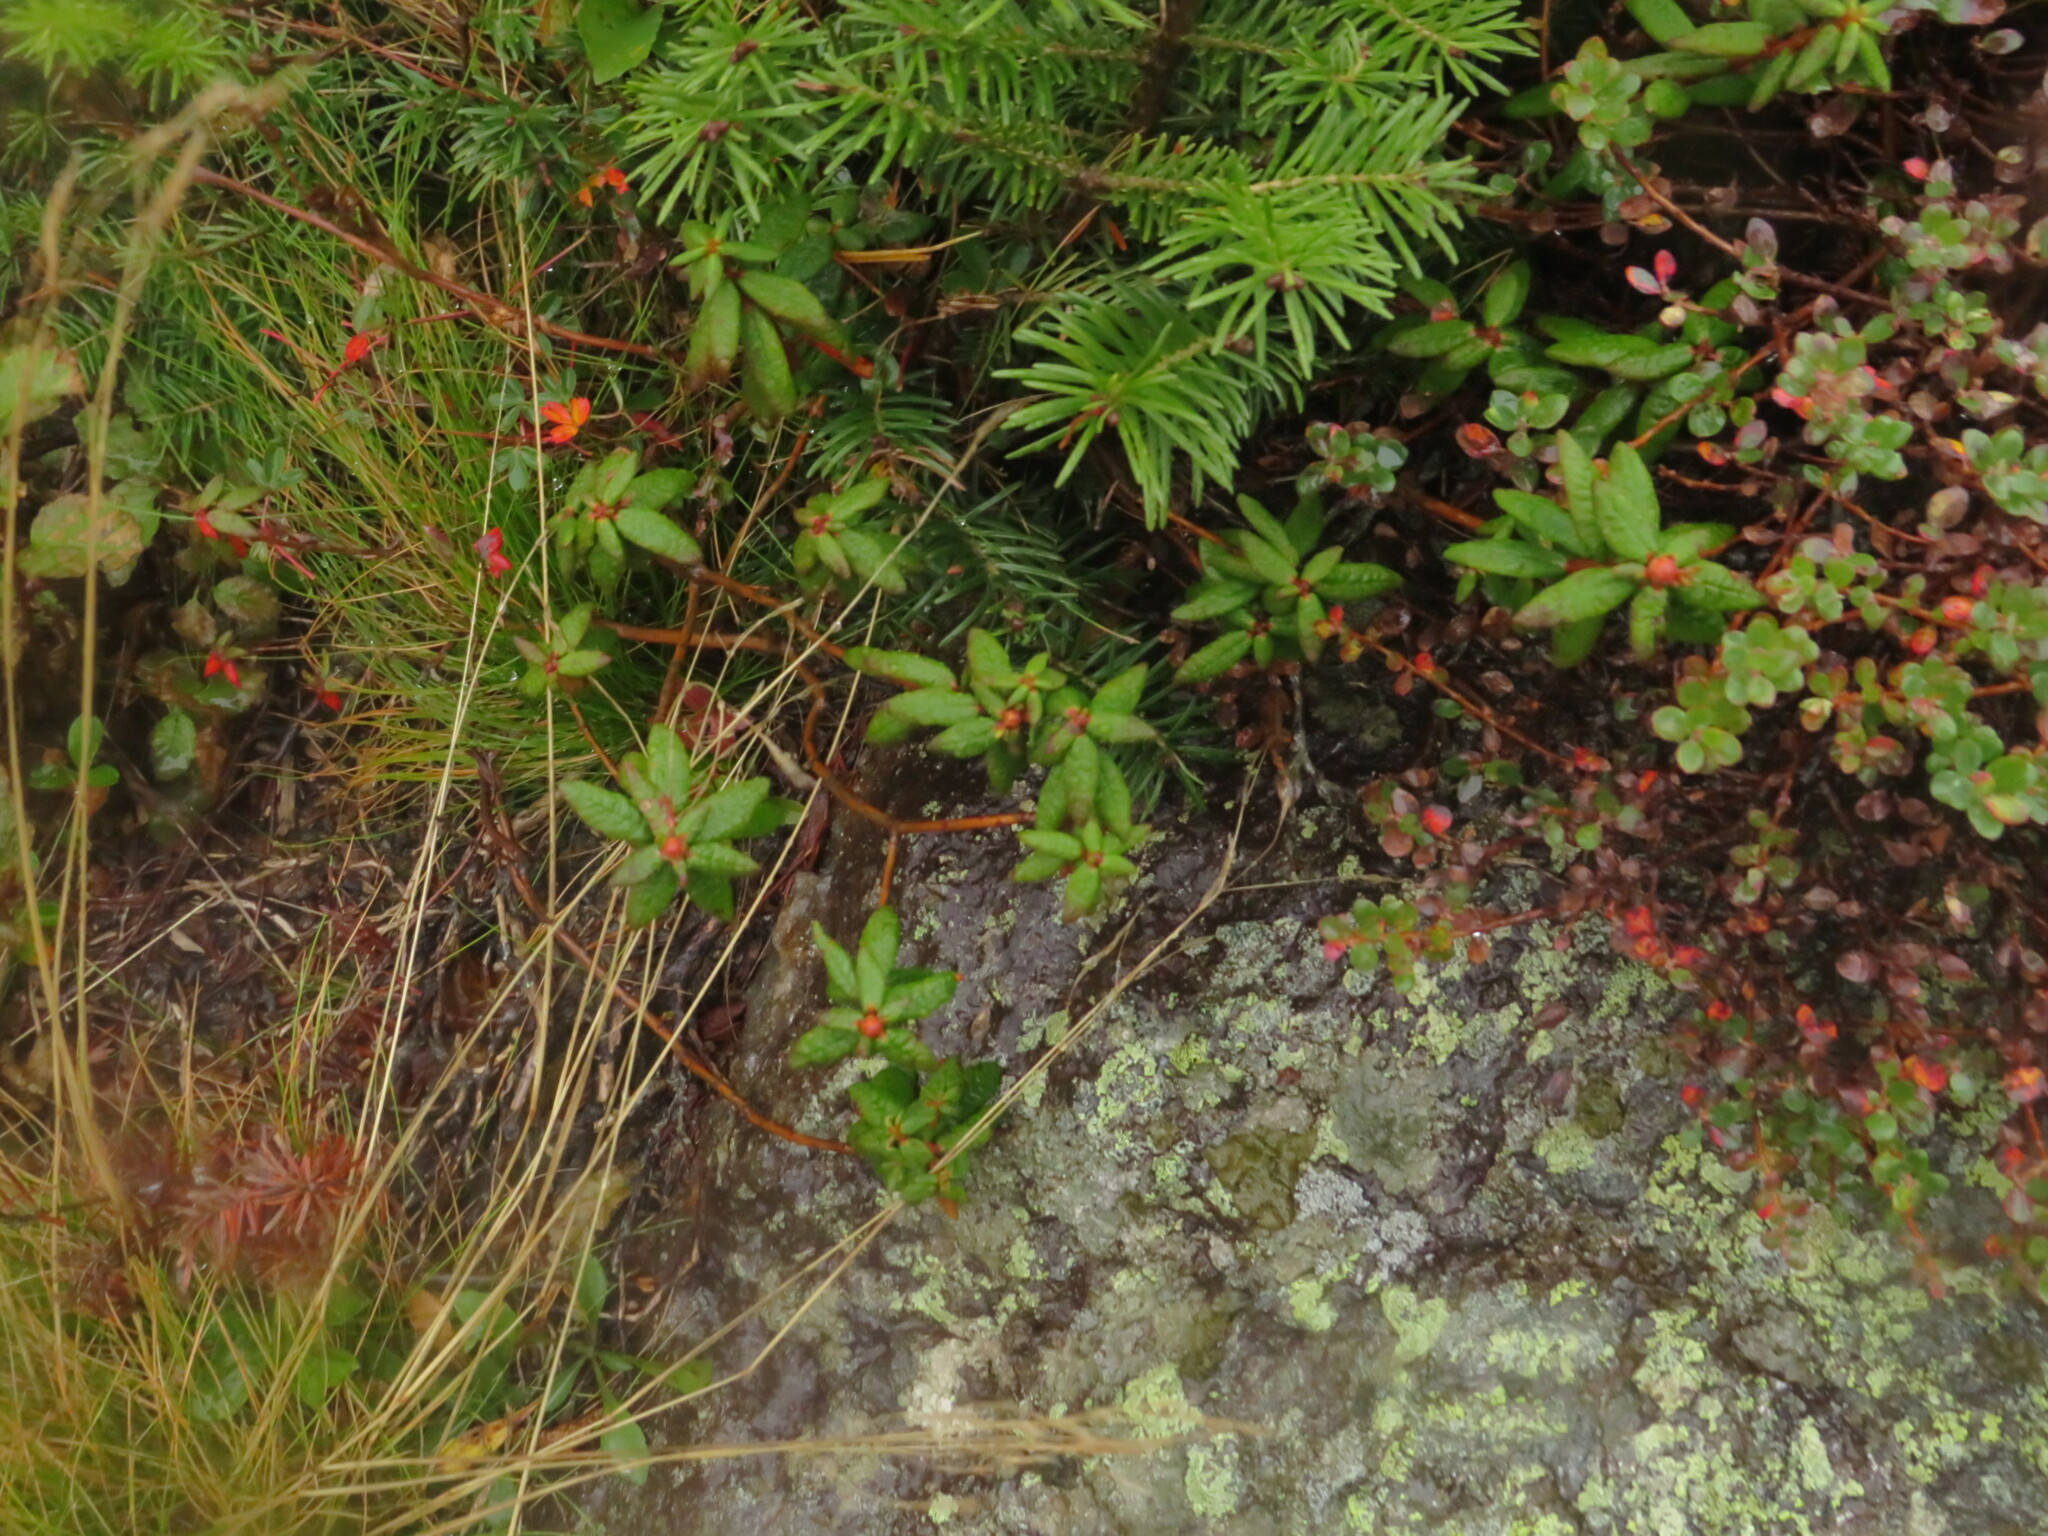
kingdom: Plantae
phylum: Tracheophyta
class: Magnoliopsida
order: Ericales
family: Ericaceae
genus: Rhododendron
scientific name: Rhododendron groenlandicum
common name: Bog labrador tea
